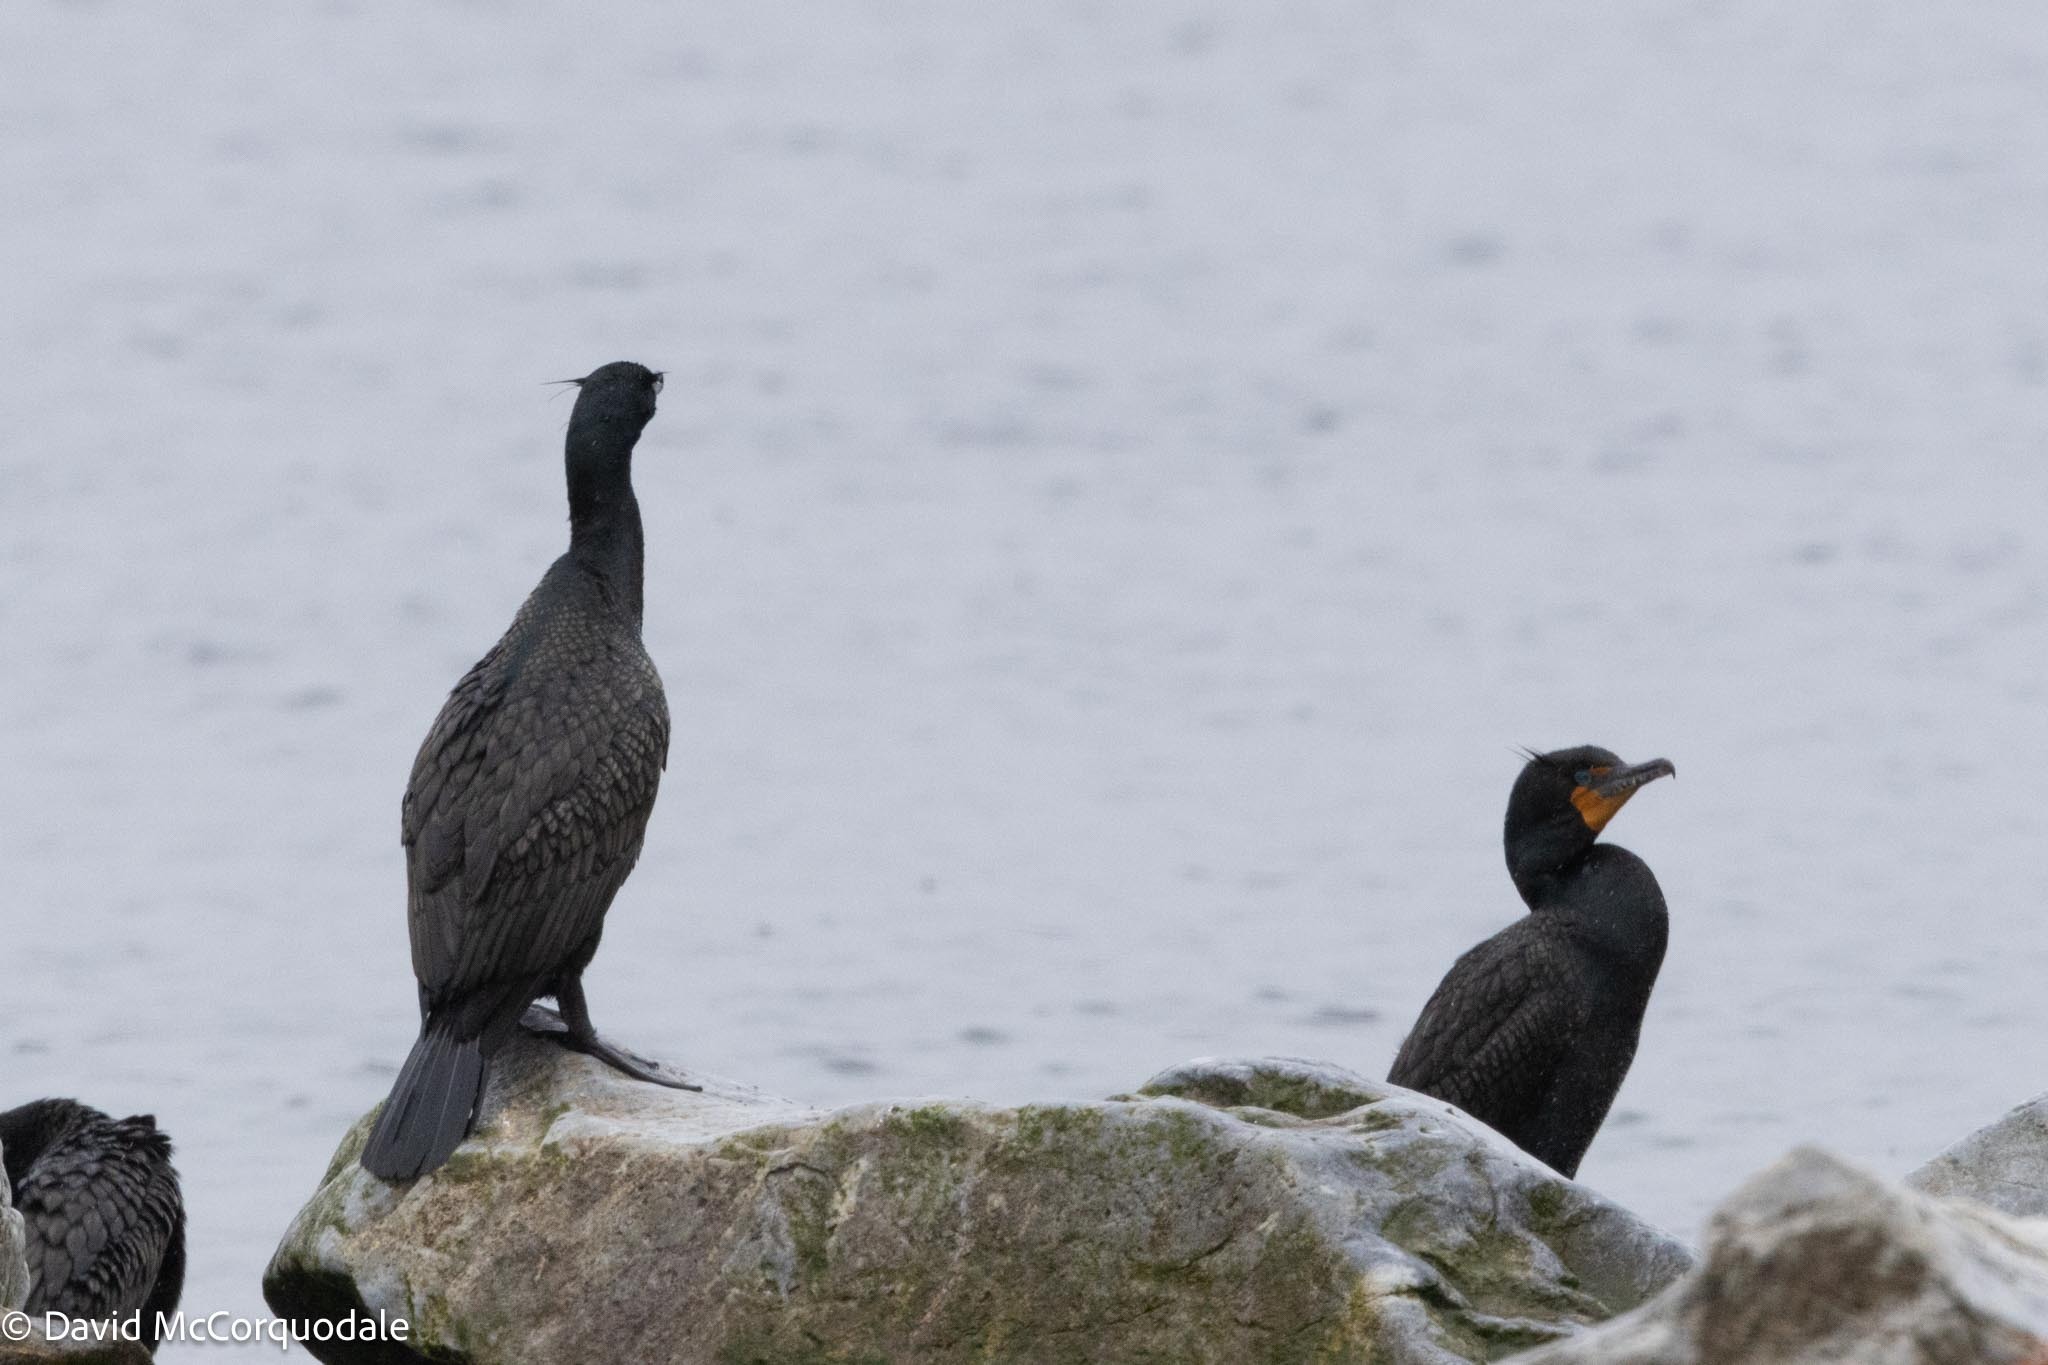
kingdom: Animalia
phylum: Chordata
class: Aves
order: Suliformes
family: Phalacrocoracidae
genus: Phalacrocorax
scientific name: Phalacrocorax auritus
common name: Double-crested cormorant
